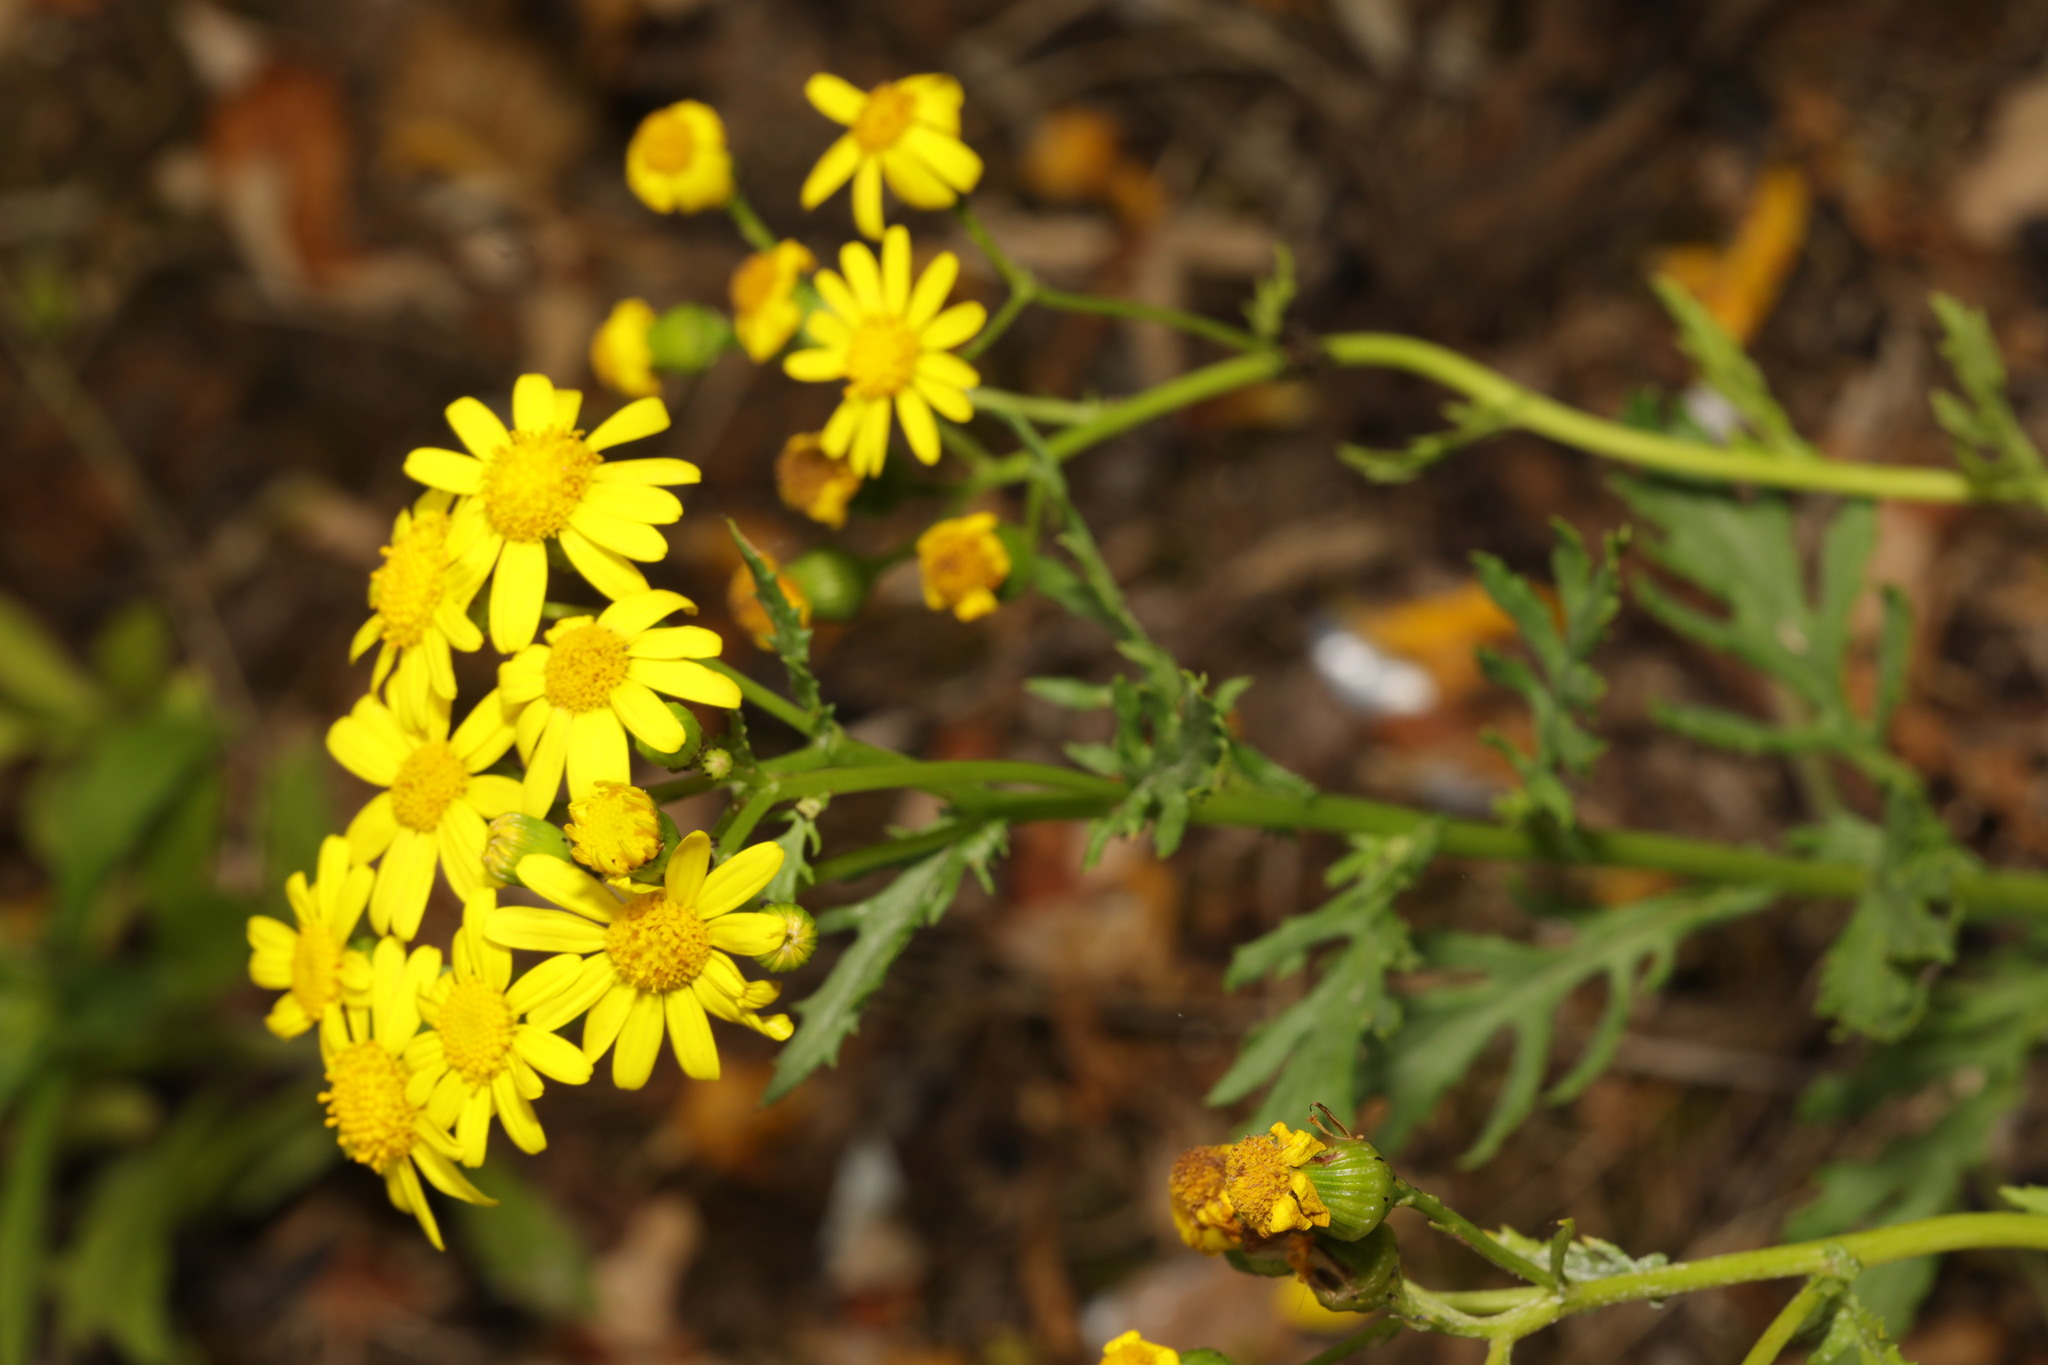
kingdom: Plantae
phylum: Tracheophyta
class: Magnoliopsida
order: Asterales
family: Asteraceae
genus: Senecio
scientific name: Senecio squalidus
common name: Oxford ragwort
